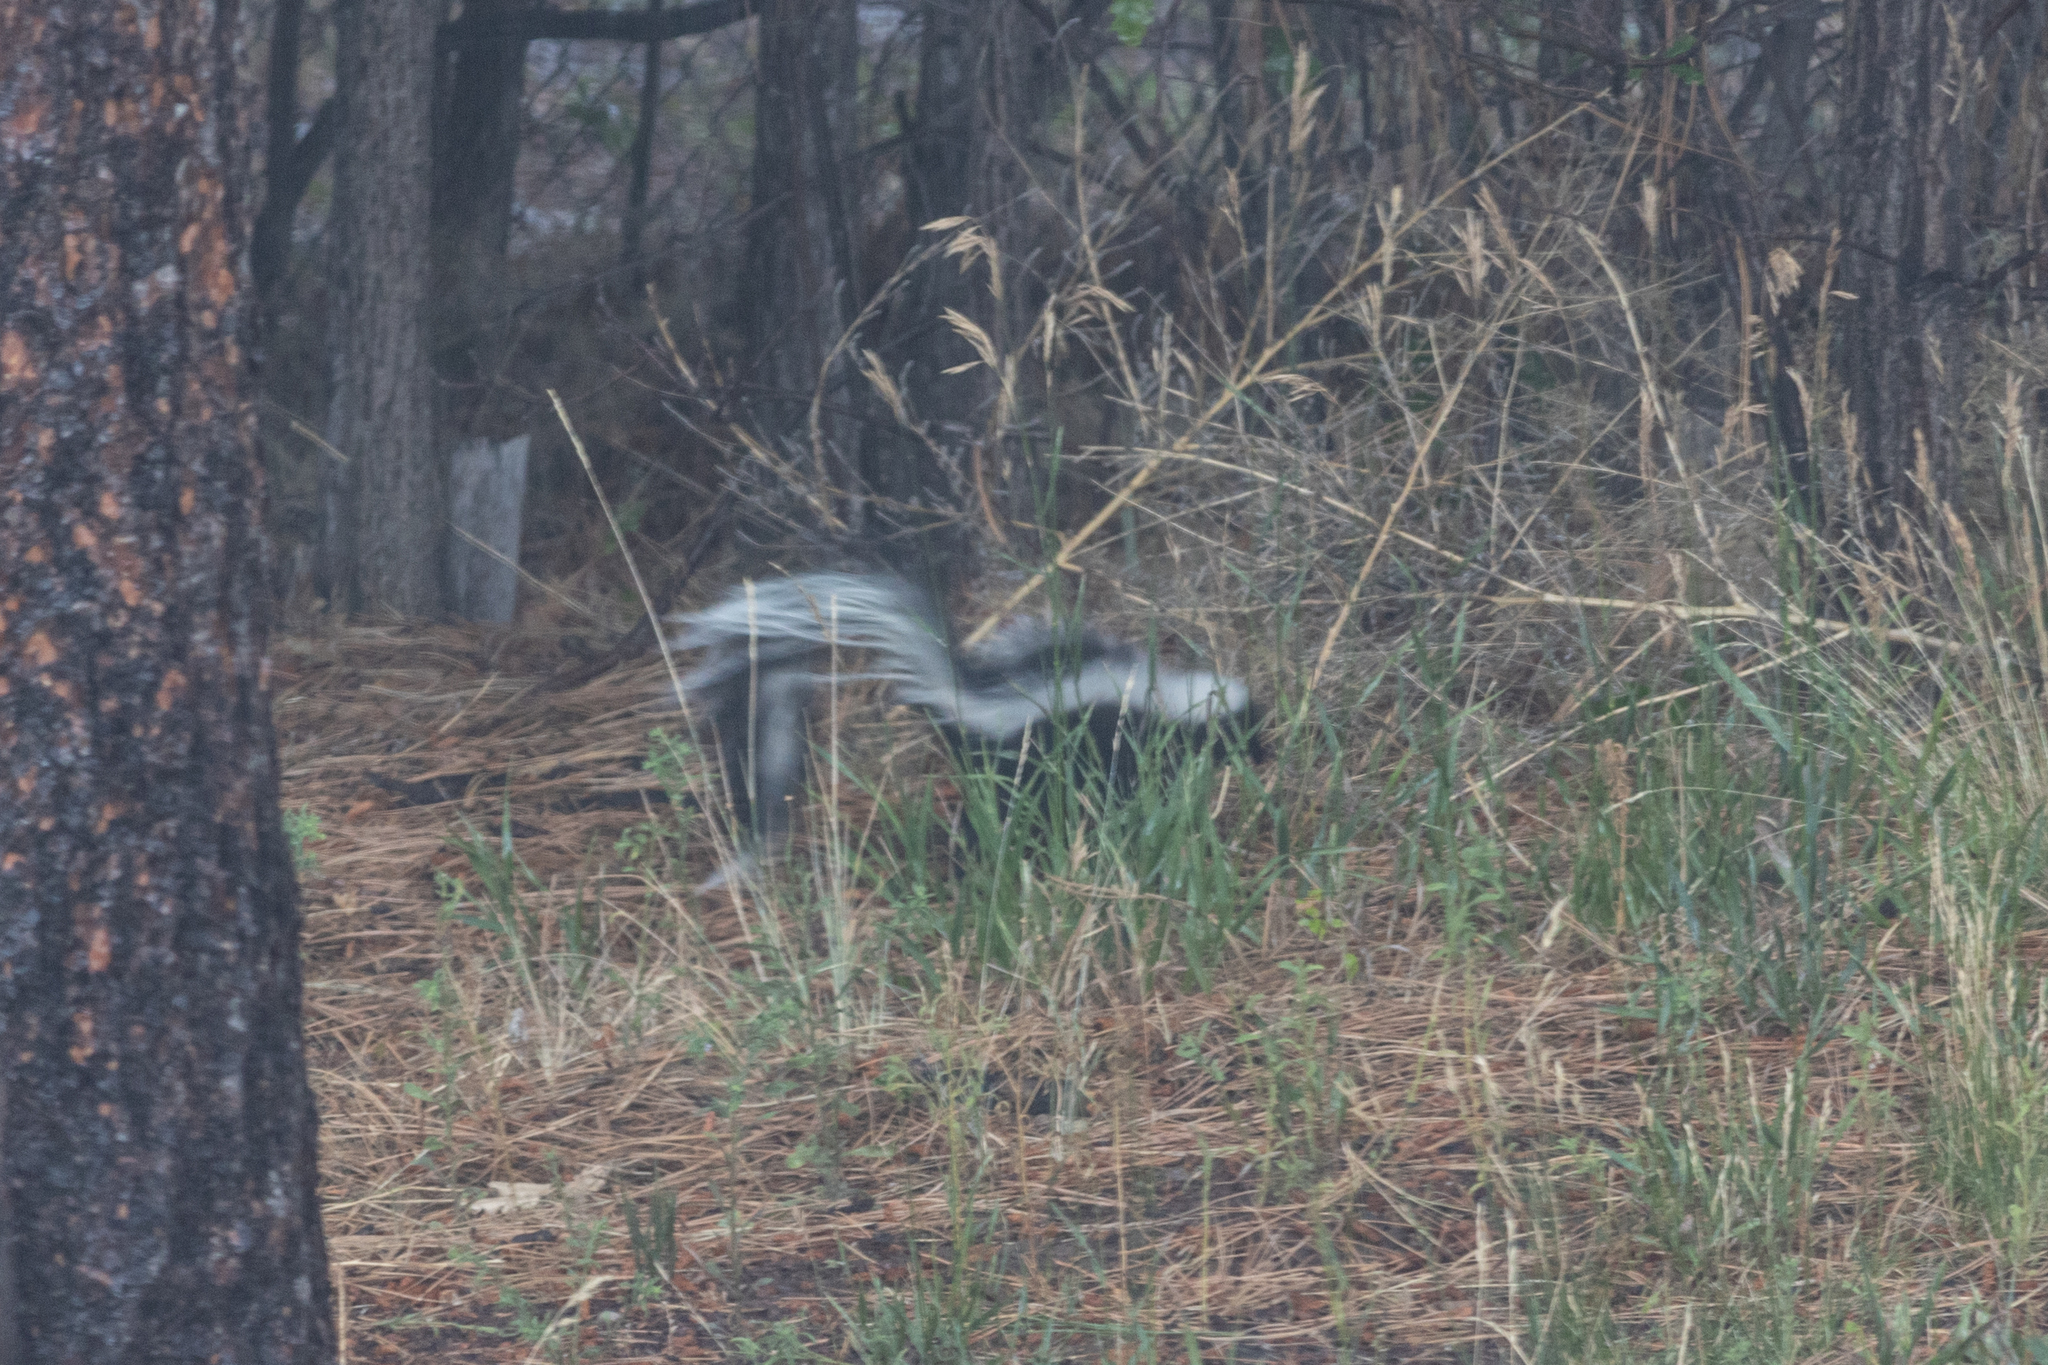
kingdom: Animalia
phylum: Chordata
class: Mammalia
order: Carnivora
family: Mephitidae
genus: Mephitis
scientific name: Mephitis mephitis
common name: Striped skunk
